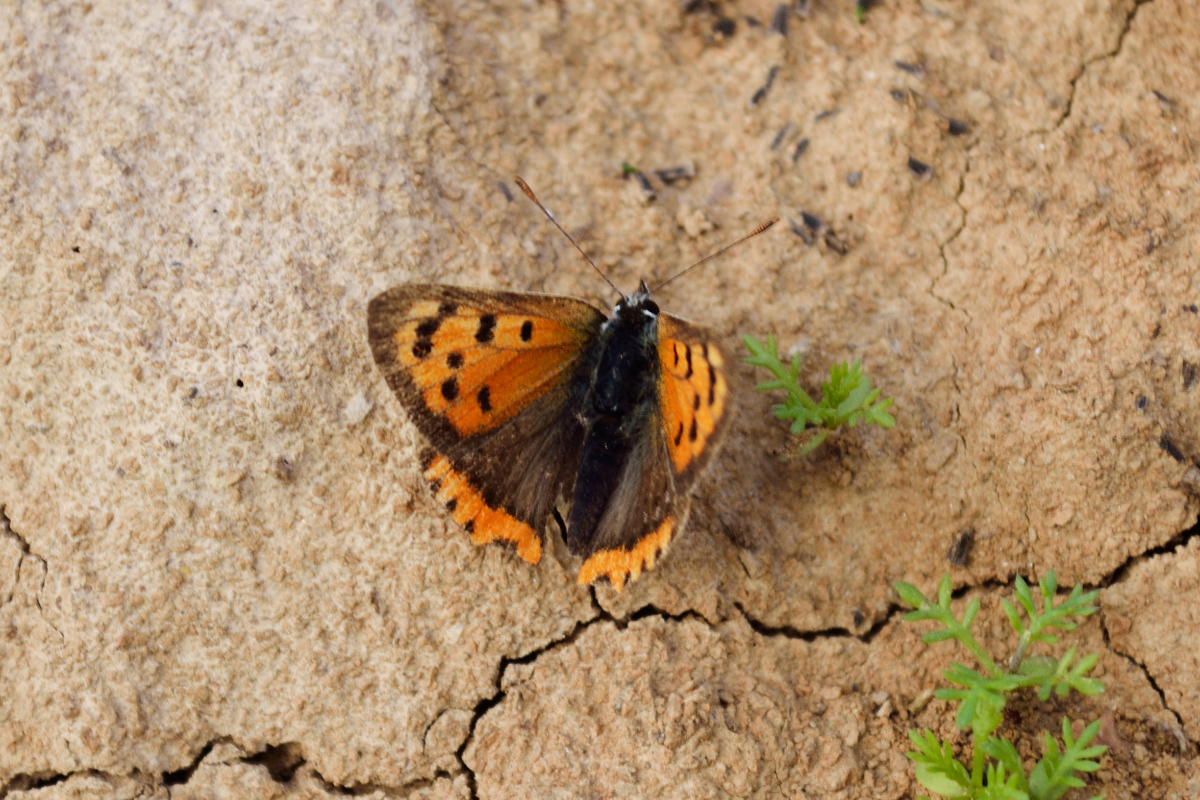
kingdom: Animalia
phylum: Arthropoda
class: Insecta
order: Lepidoptera
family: Lycaenidae
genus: Lycaena
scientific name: Lycaena phlaeas
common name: Small copper
